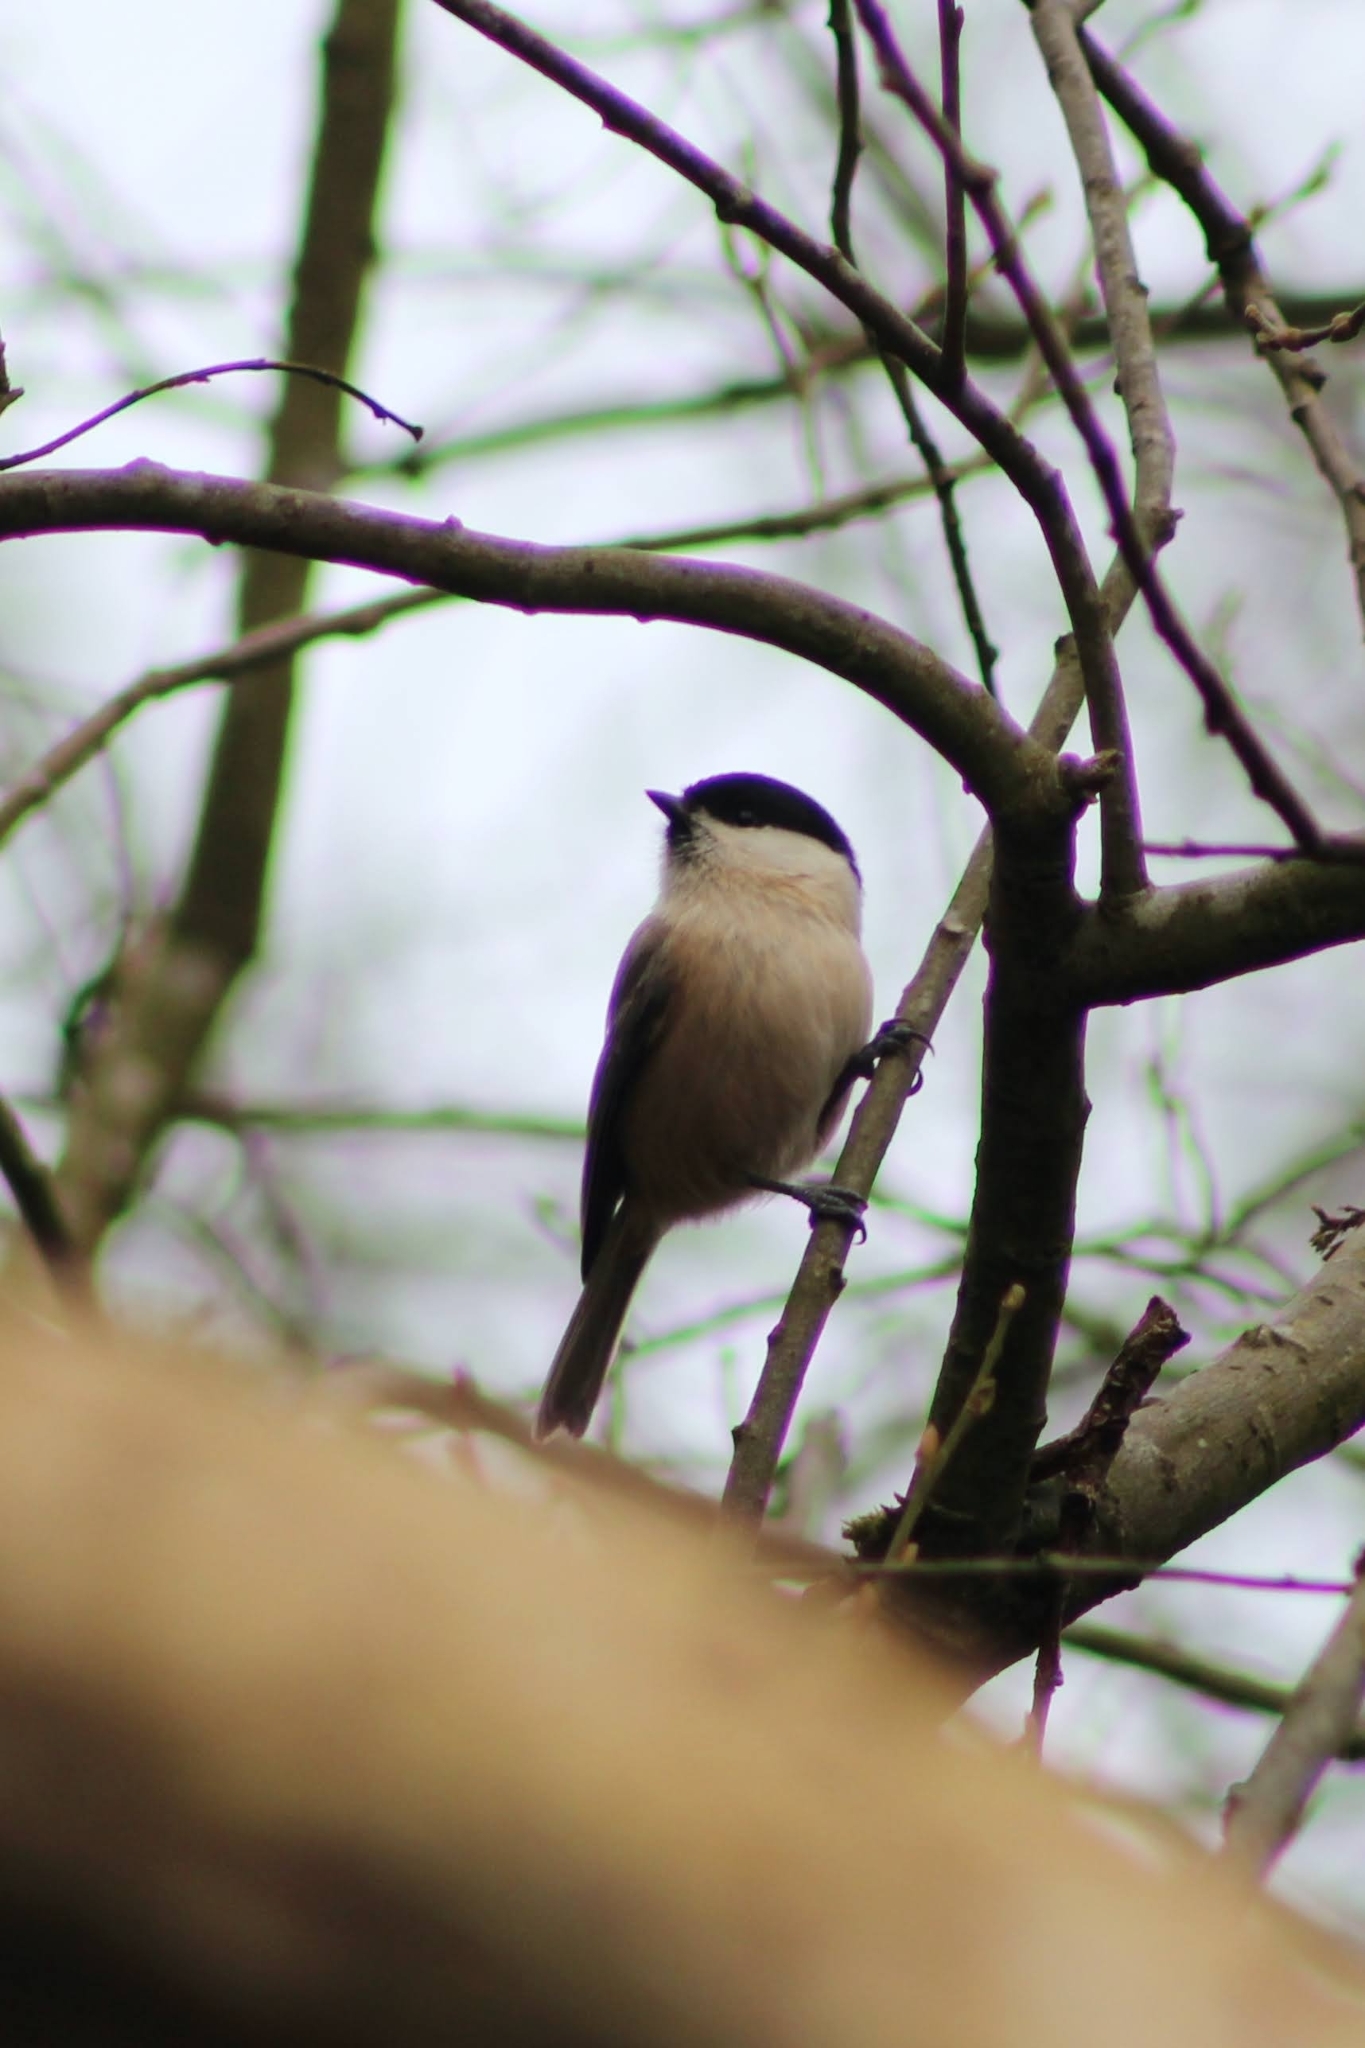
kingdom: Animalia
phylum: Chordata
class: Aves
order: Passeriformes
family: Paridae
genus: Poecile
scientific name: Poecile montanus
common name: Willow tit
